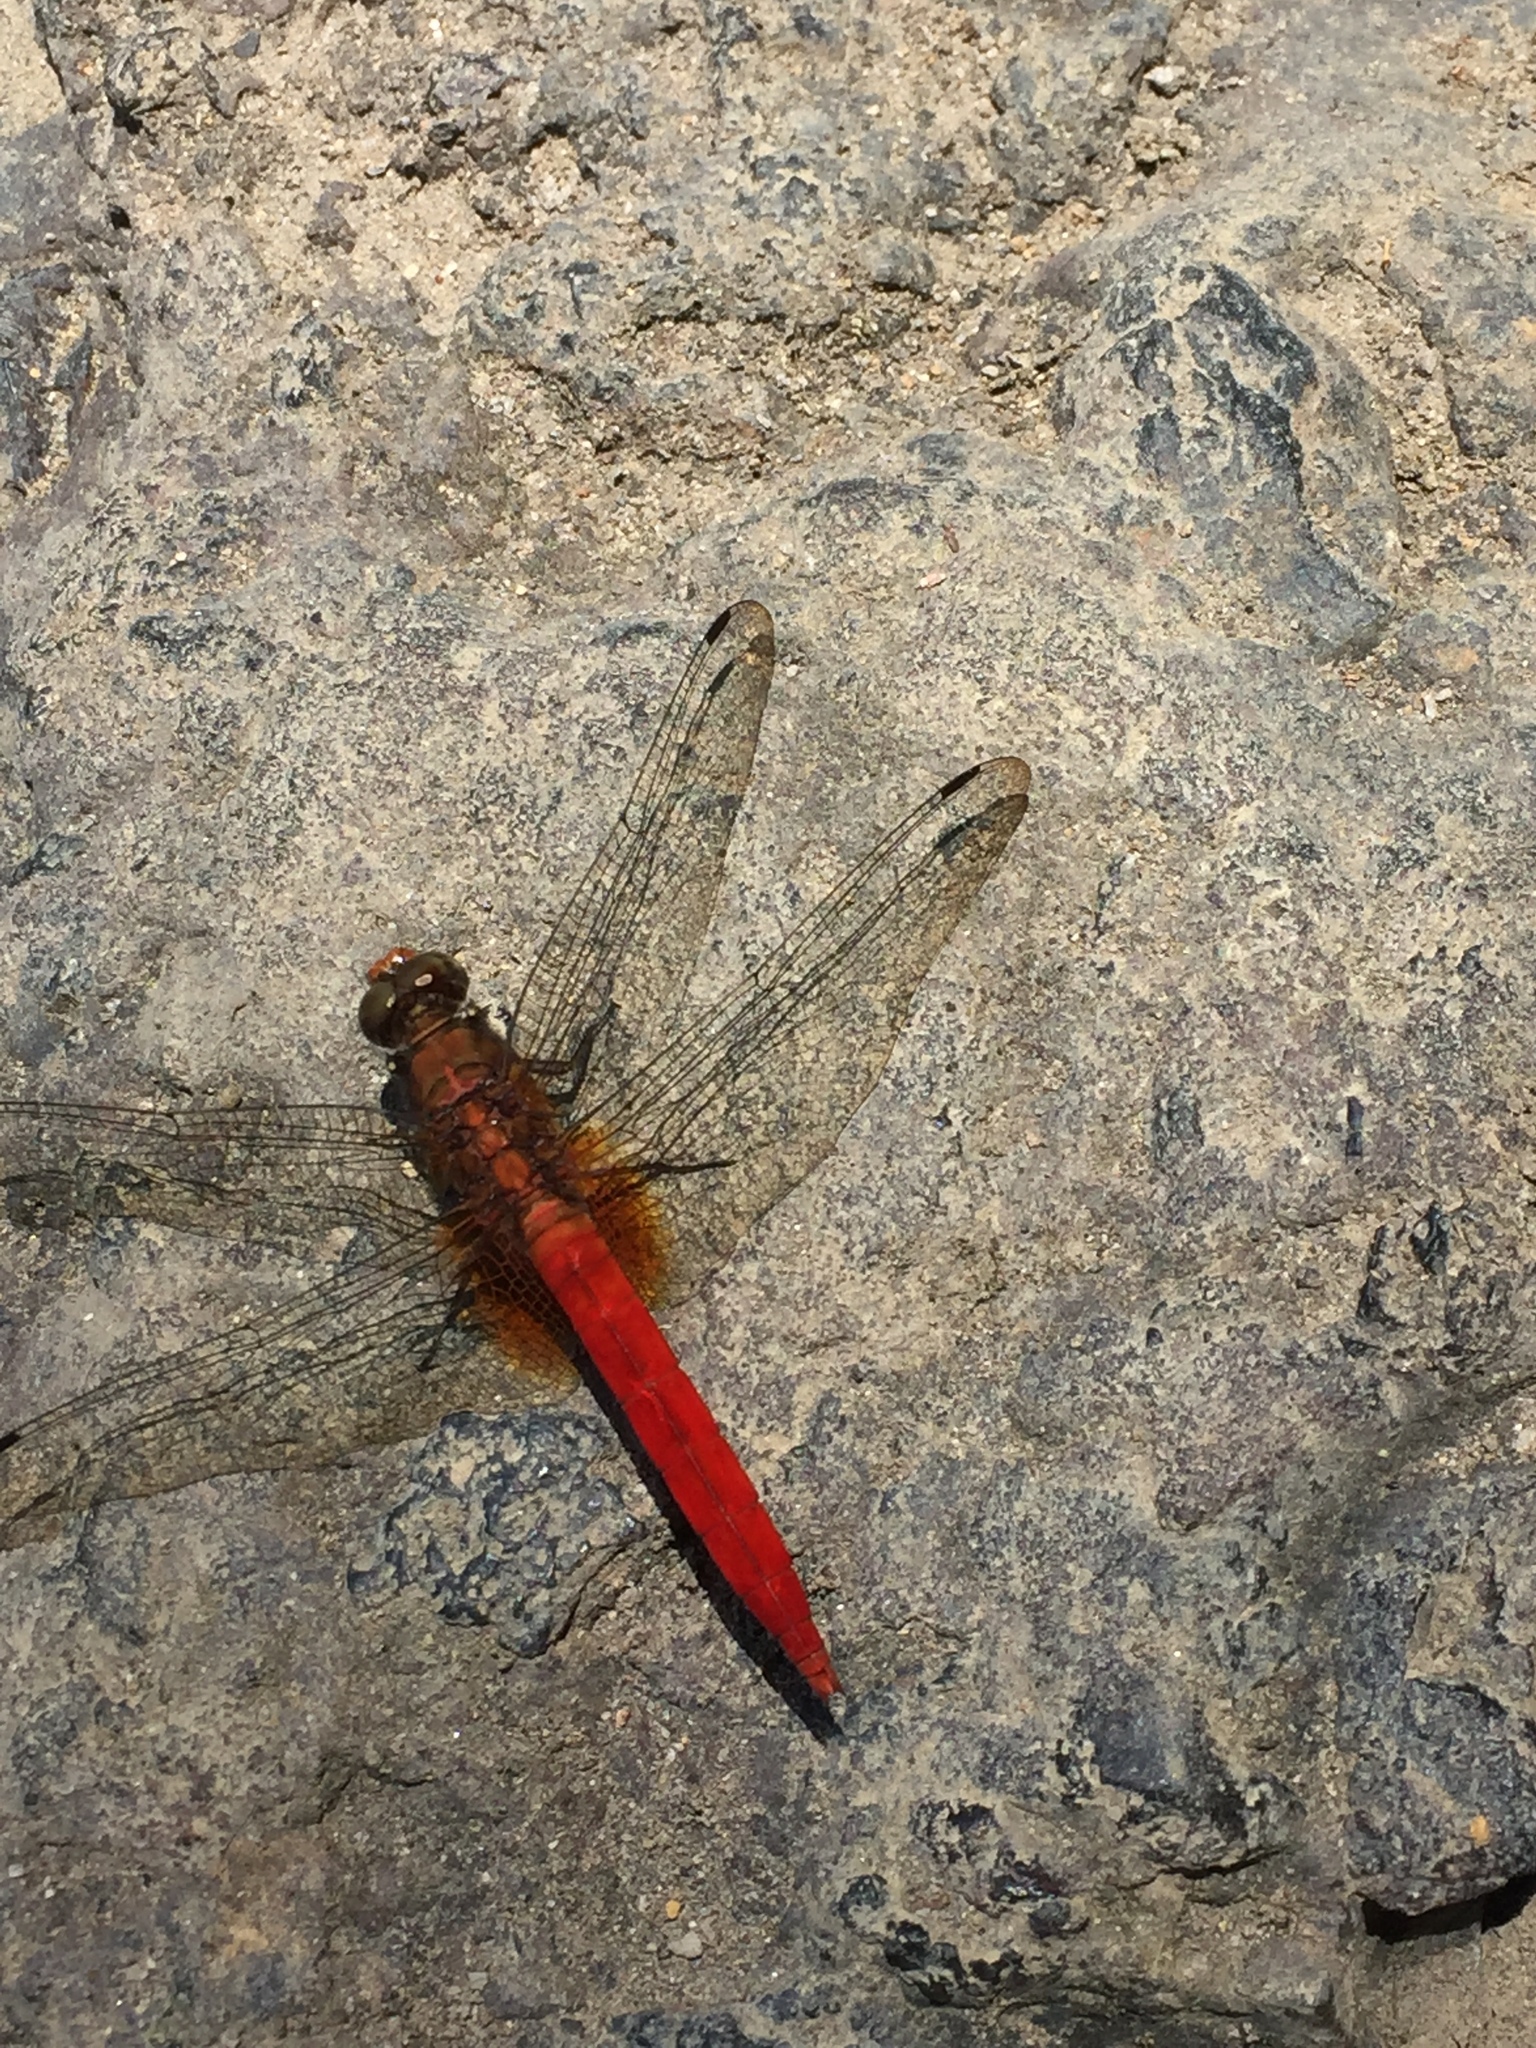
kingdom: Animalia
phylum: Arthropoda
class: Insecta
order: Odonata
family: Libellulidae
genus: Orthetrum
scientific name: Orthetrum testaceum
